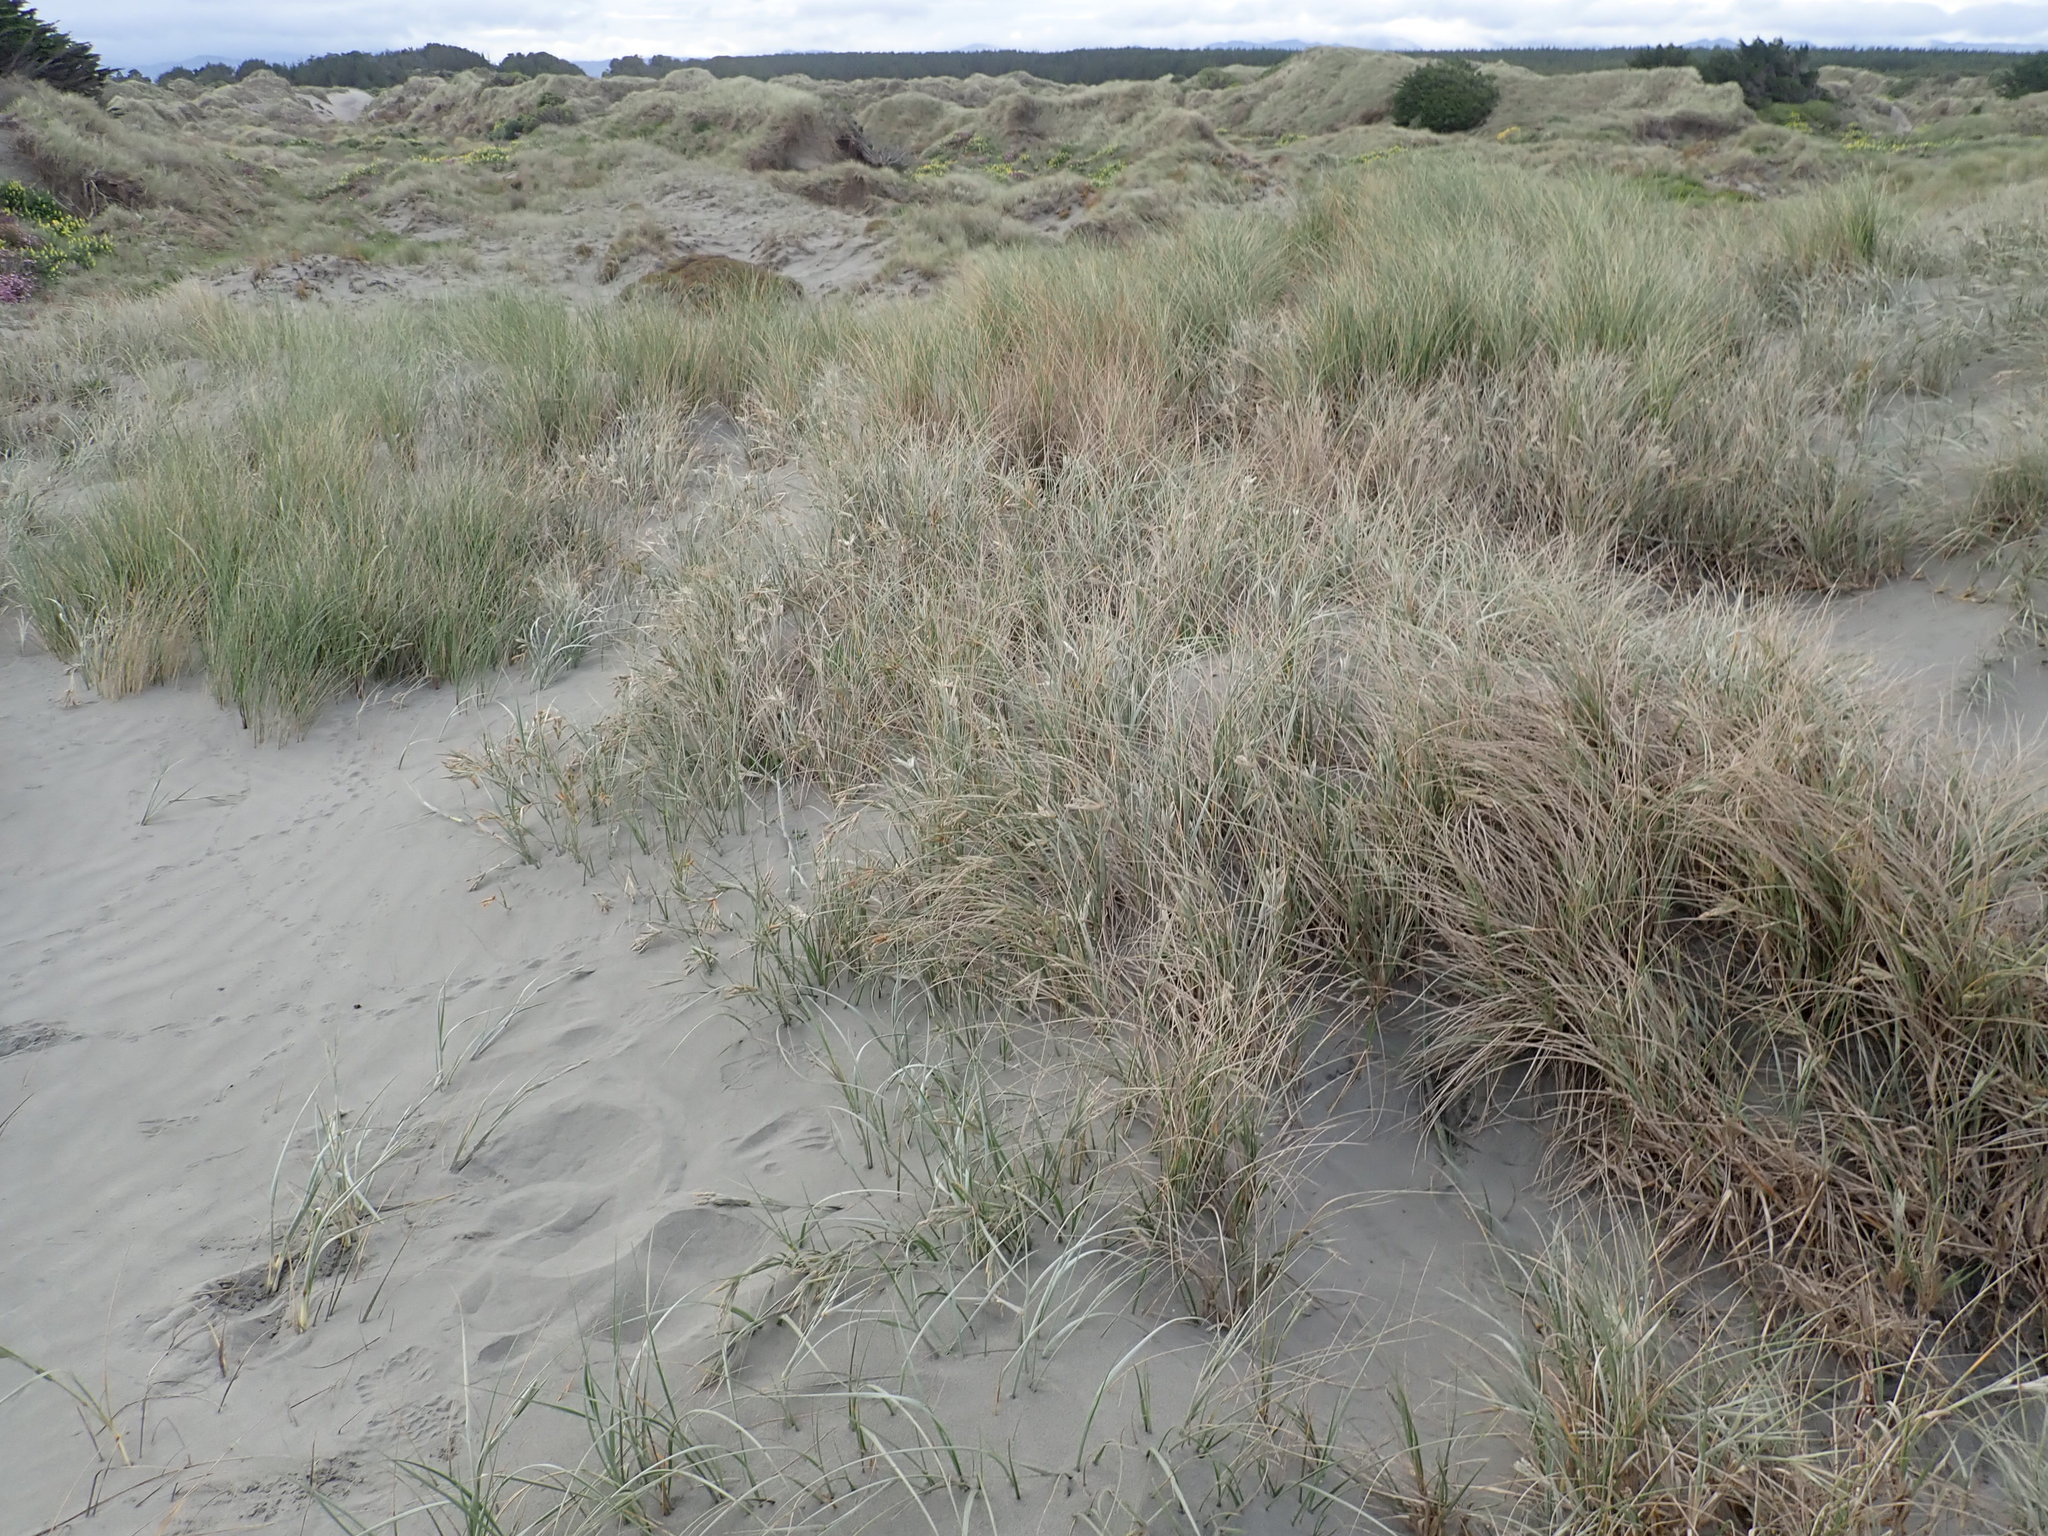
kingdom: Plantae
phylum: Tracheophyta
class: Liliopsida
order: Poales
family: Poaceae
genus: Spinifex
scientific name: Spinifex sericeus
